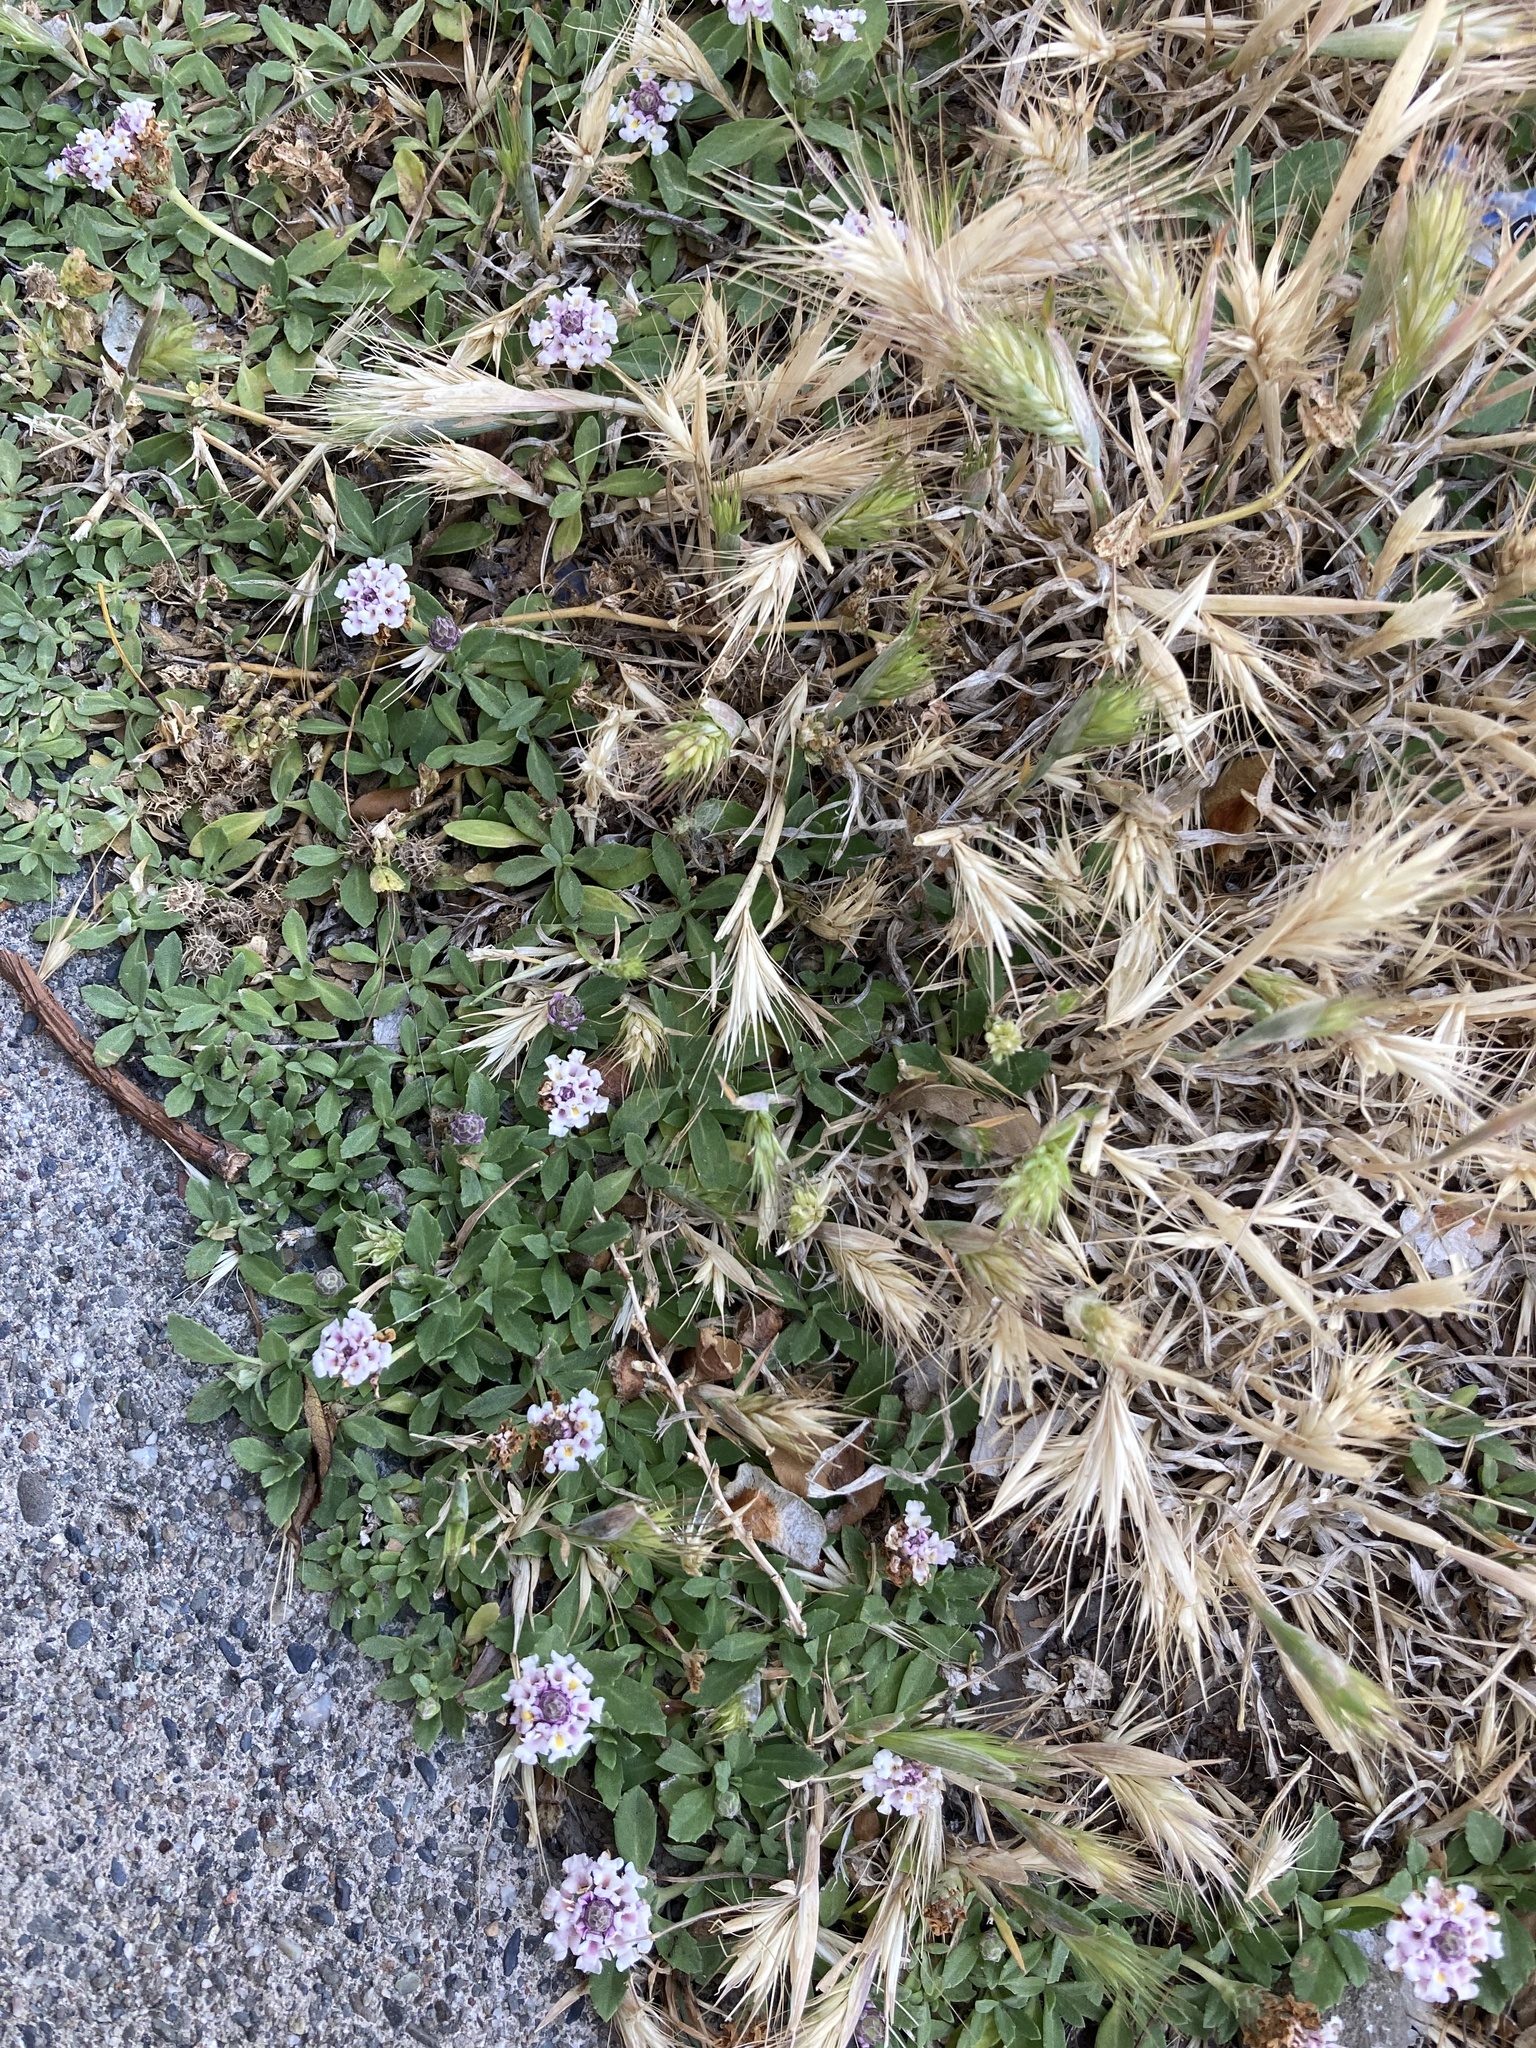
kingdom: Plantae
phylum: Tracheophyta
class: Magnoliopsida
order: Lamiales
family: Verbenaceae
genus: Phyla
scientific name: Phyla nodiflora
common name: Frogfruit
